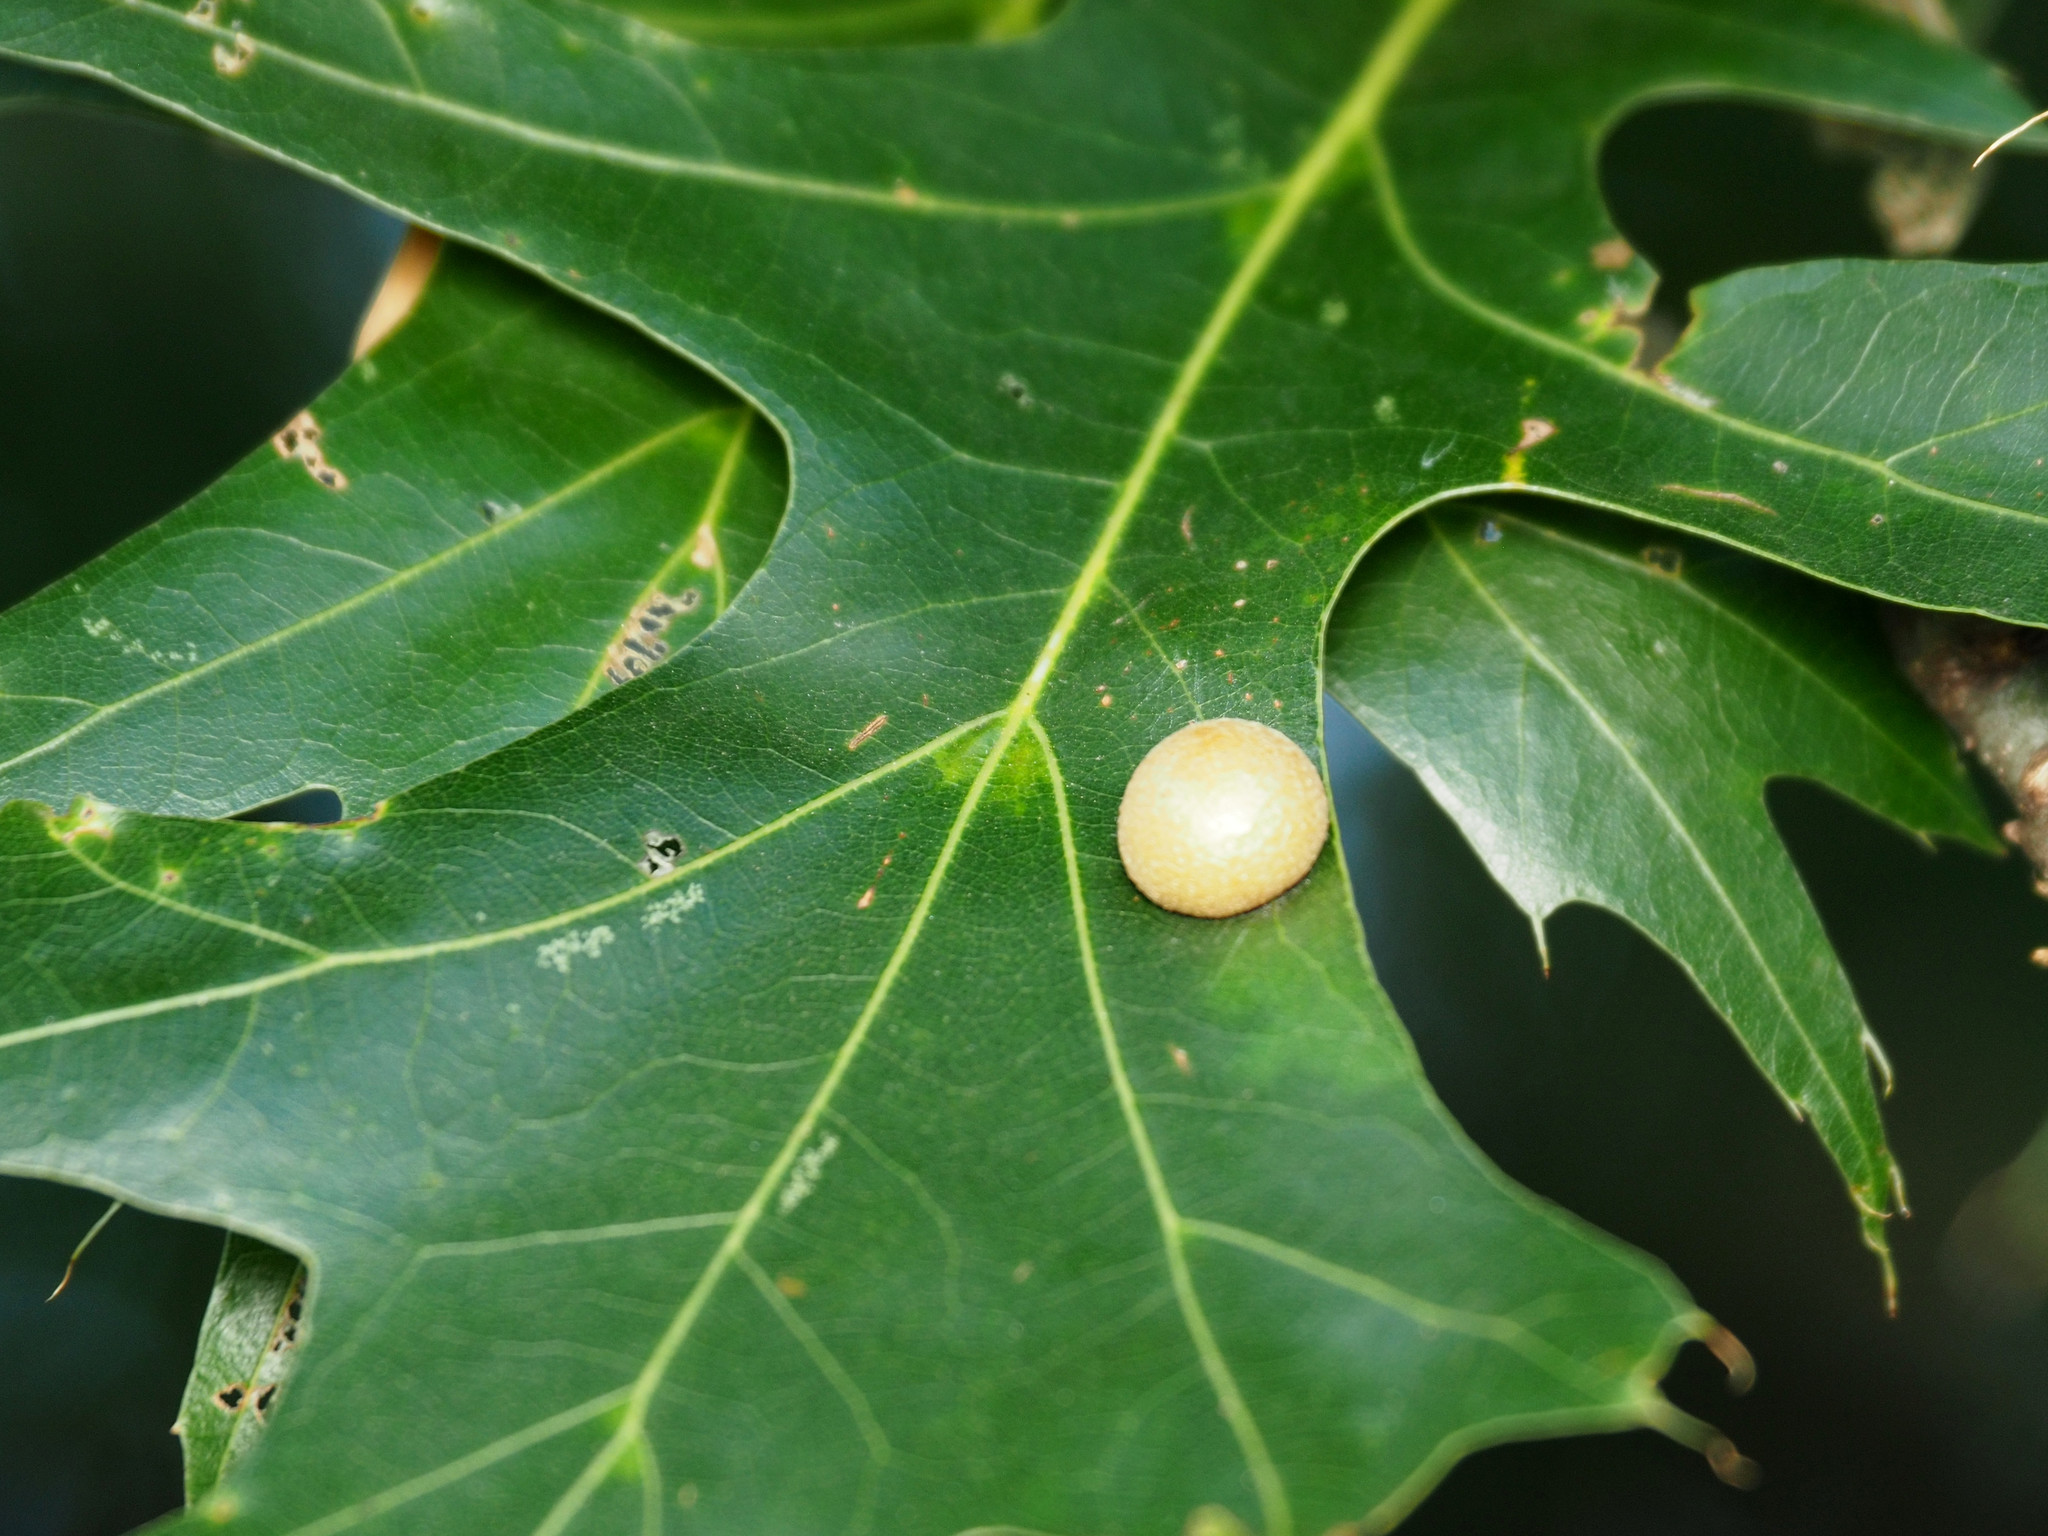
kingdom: Animalia
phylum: Arthropoda
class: Insecta
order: Diptera
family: Cecidomyiidae
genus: Polystepha
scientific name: Polystepha pilulae
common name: Oak leaf gall midge
